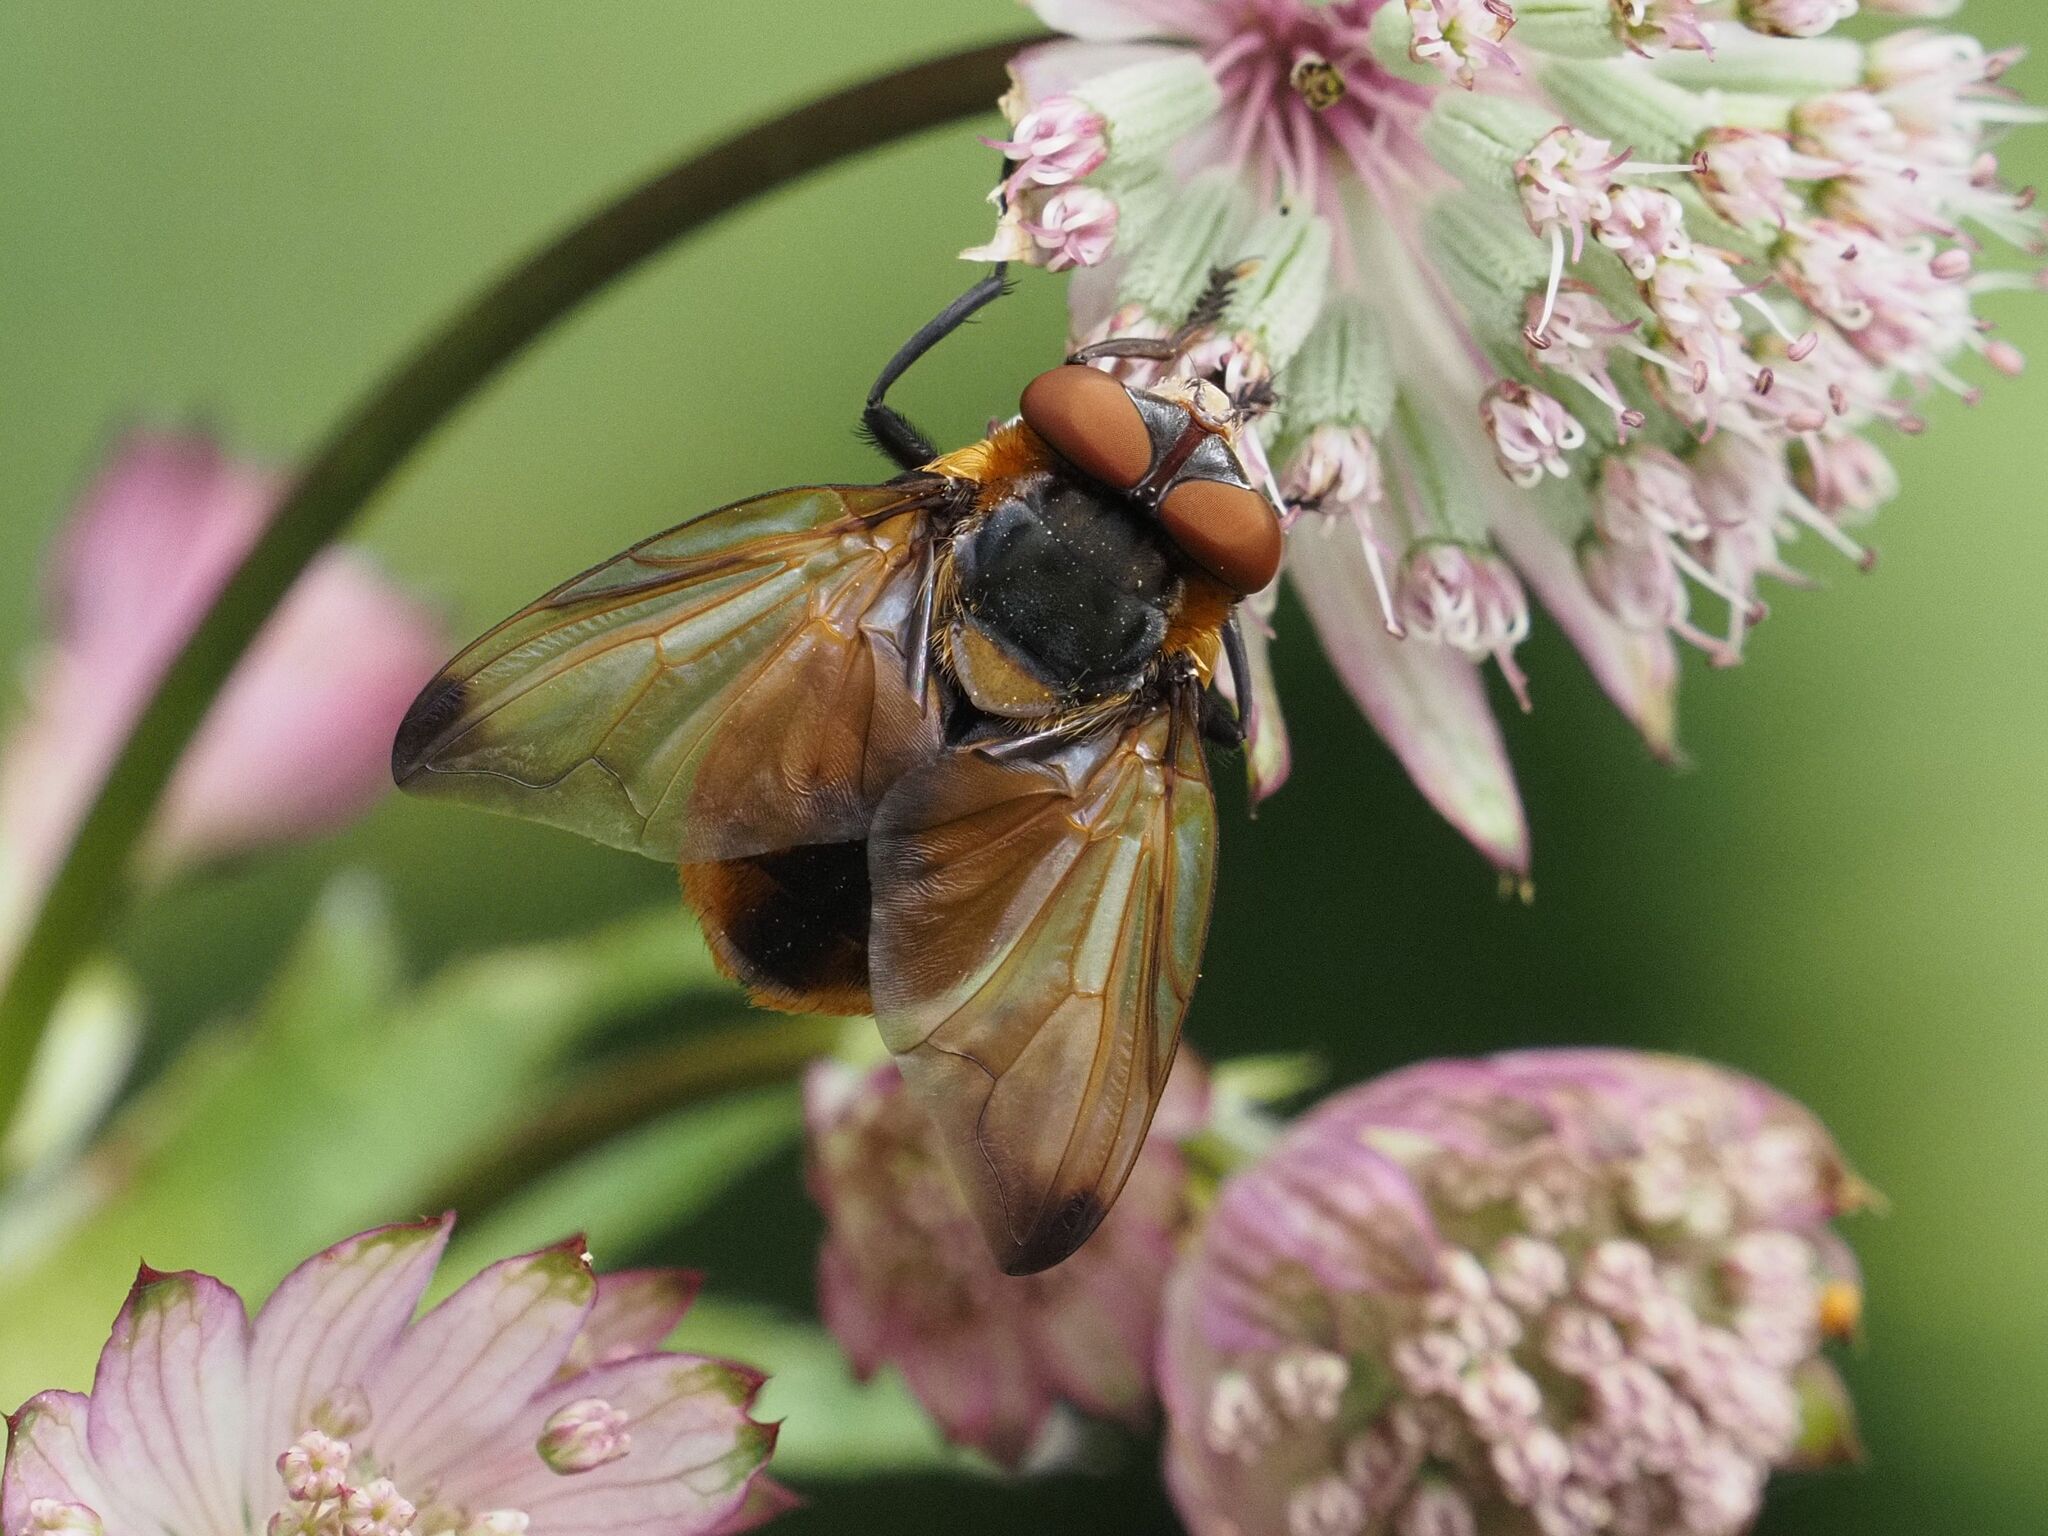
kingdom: Animalia
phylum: Arthropoda
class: Insecta
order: Diptera
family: Tachinidae
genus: Phasia
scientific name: Phasia hemiptera
